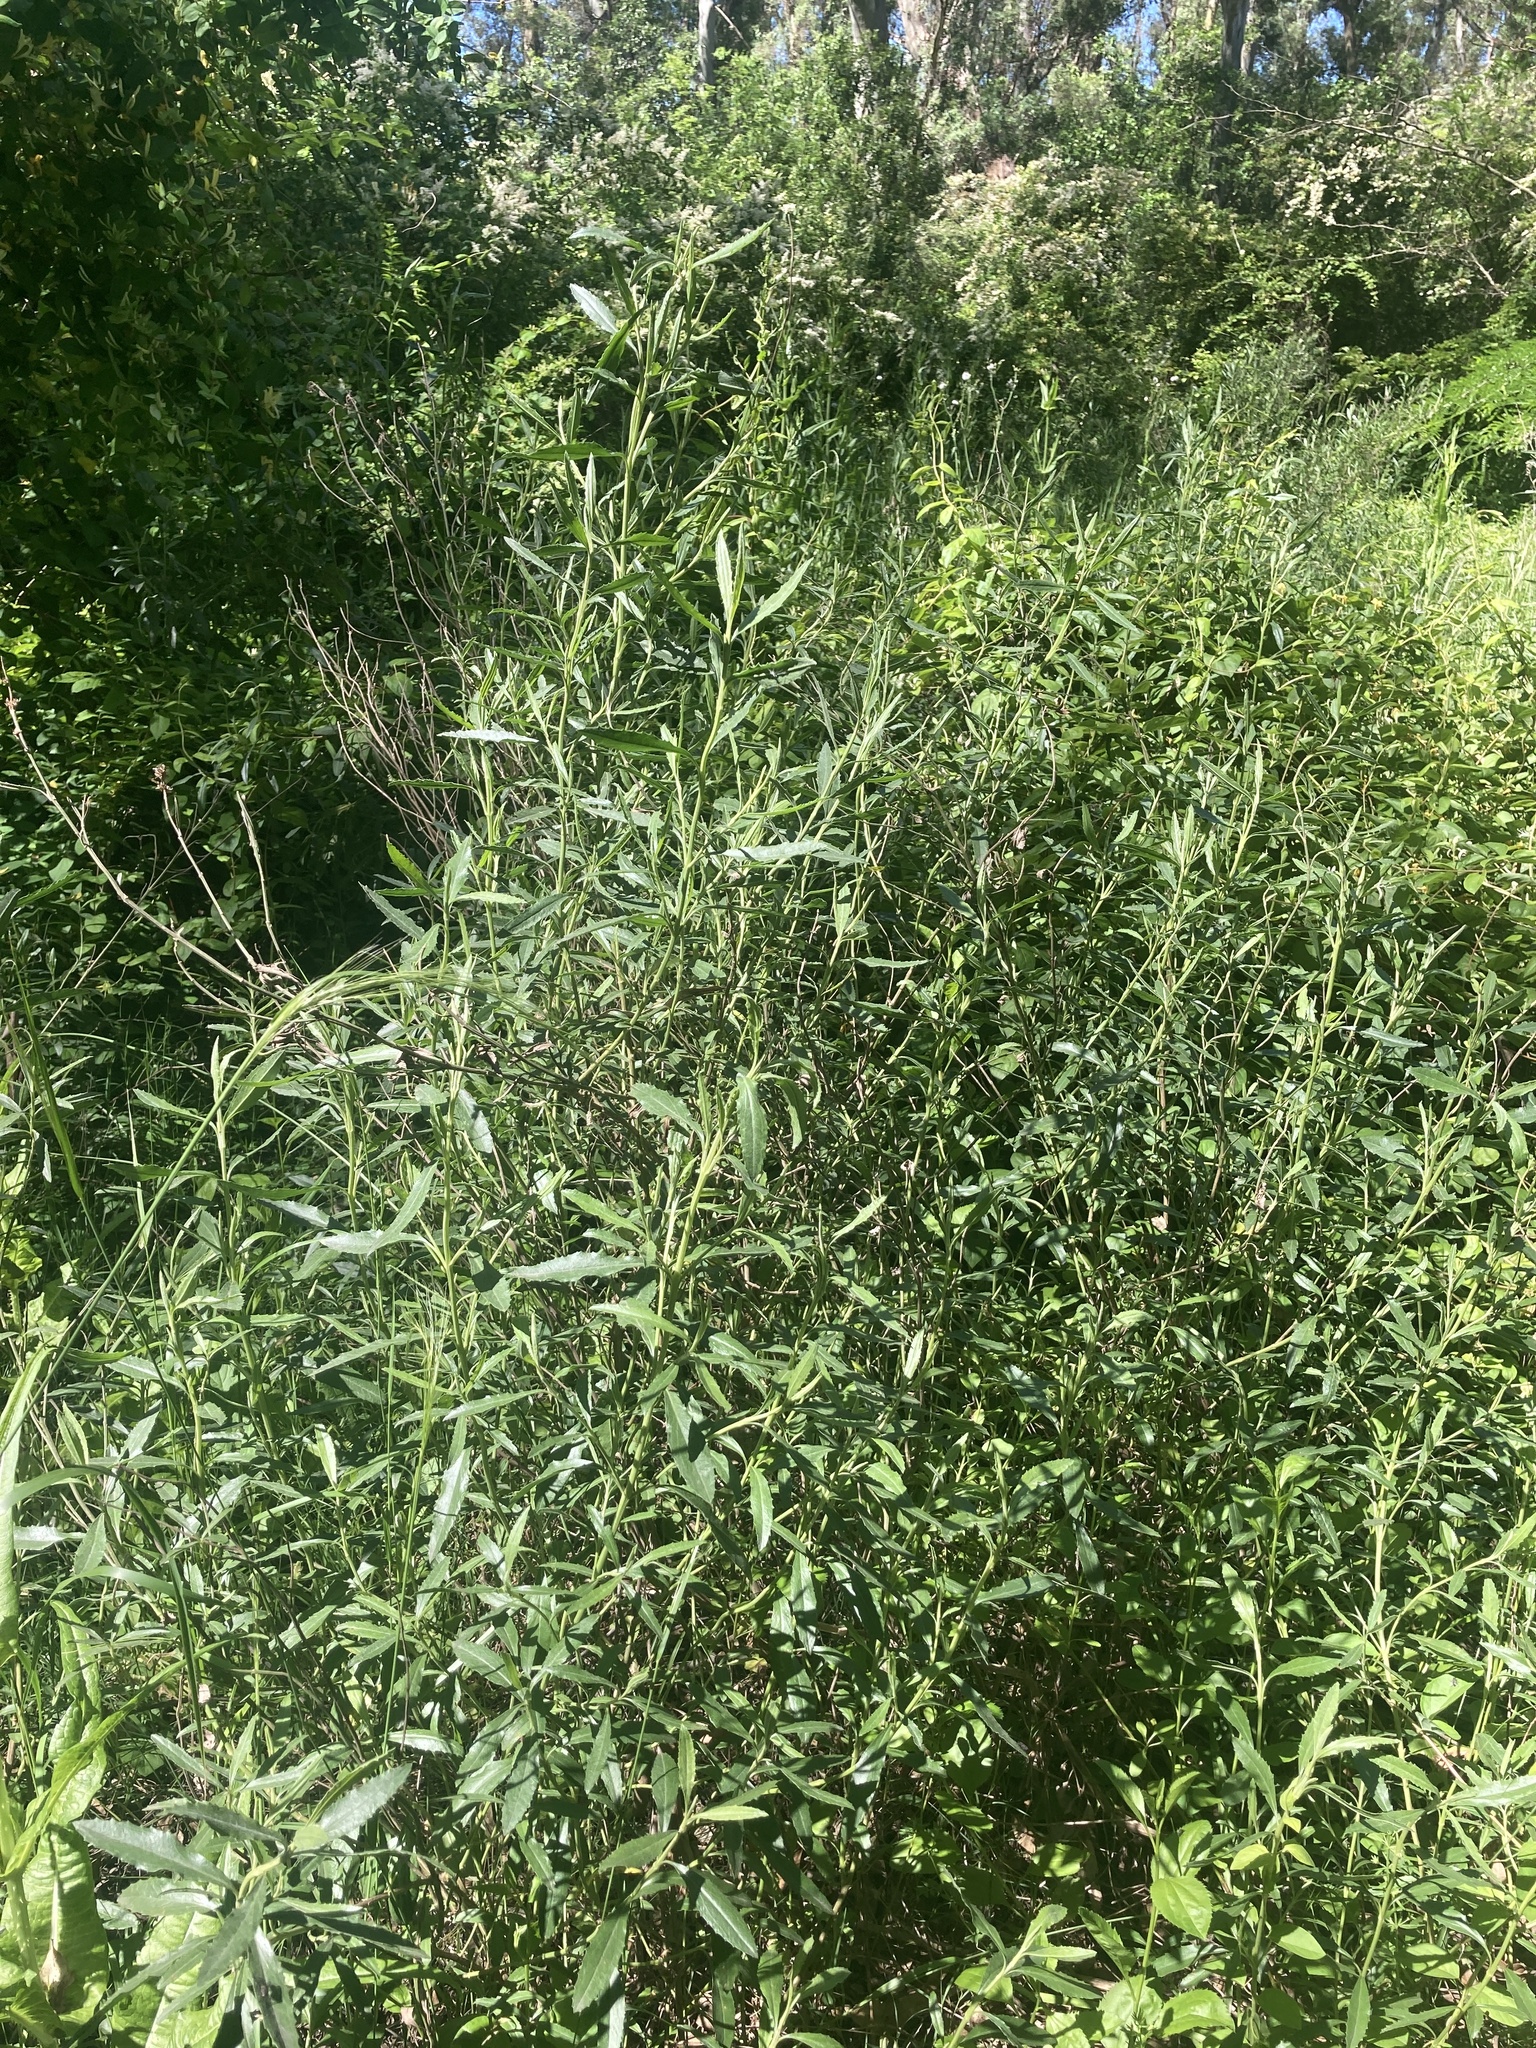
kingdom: Plantae
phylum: Tracheophyta
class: Magnoliopsida
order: Asterales
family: Asteraceae
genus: Baccharis
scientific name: Baccharis spicata
